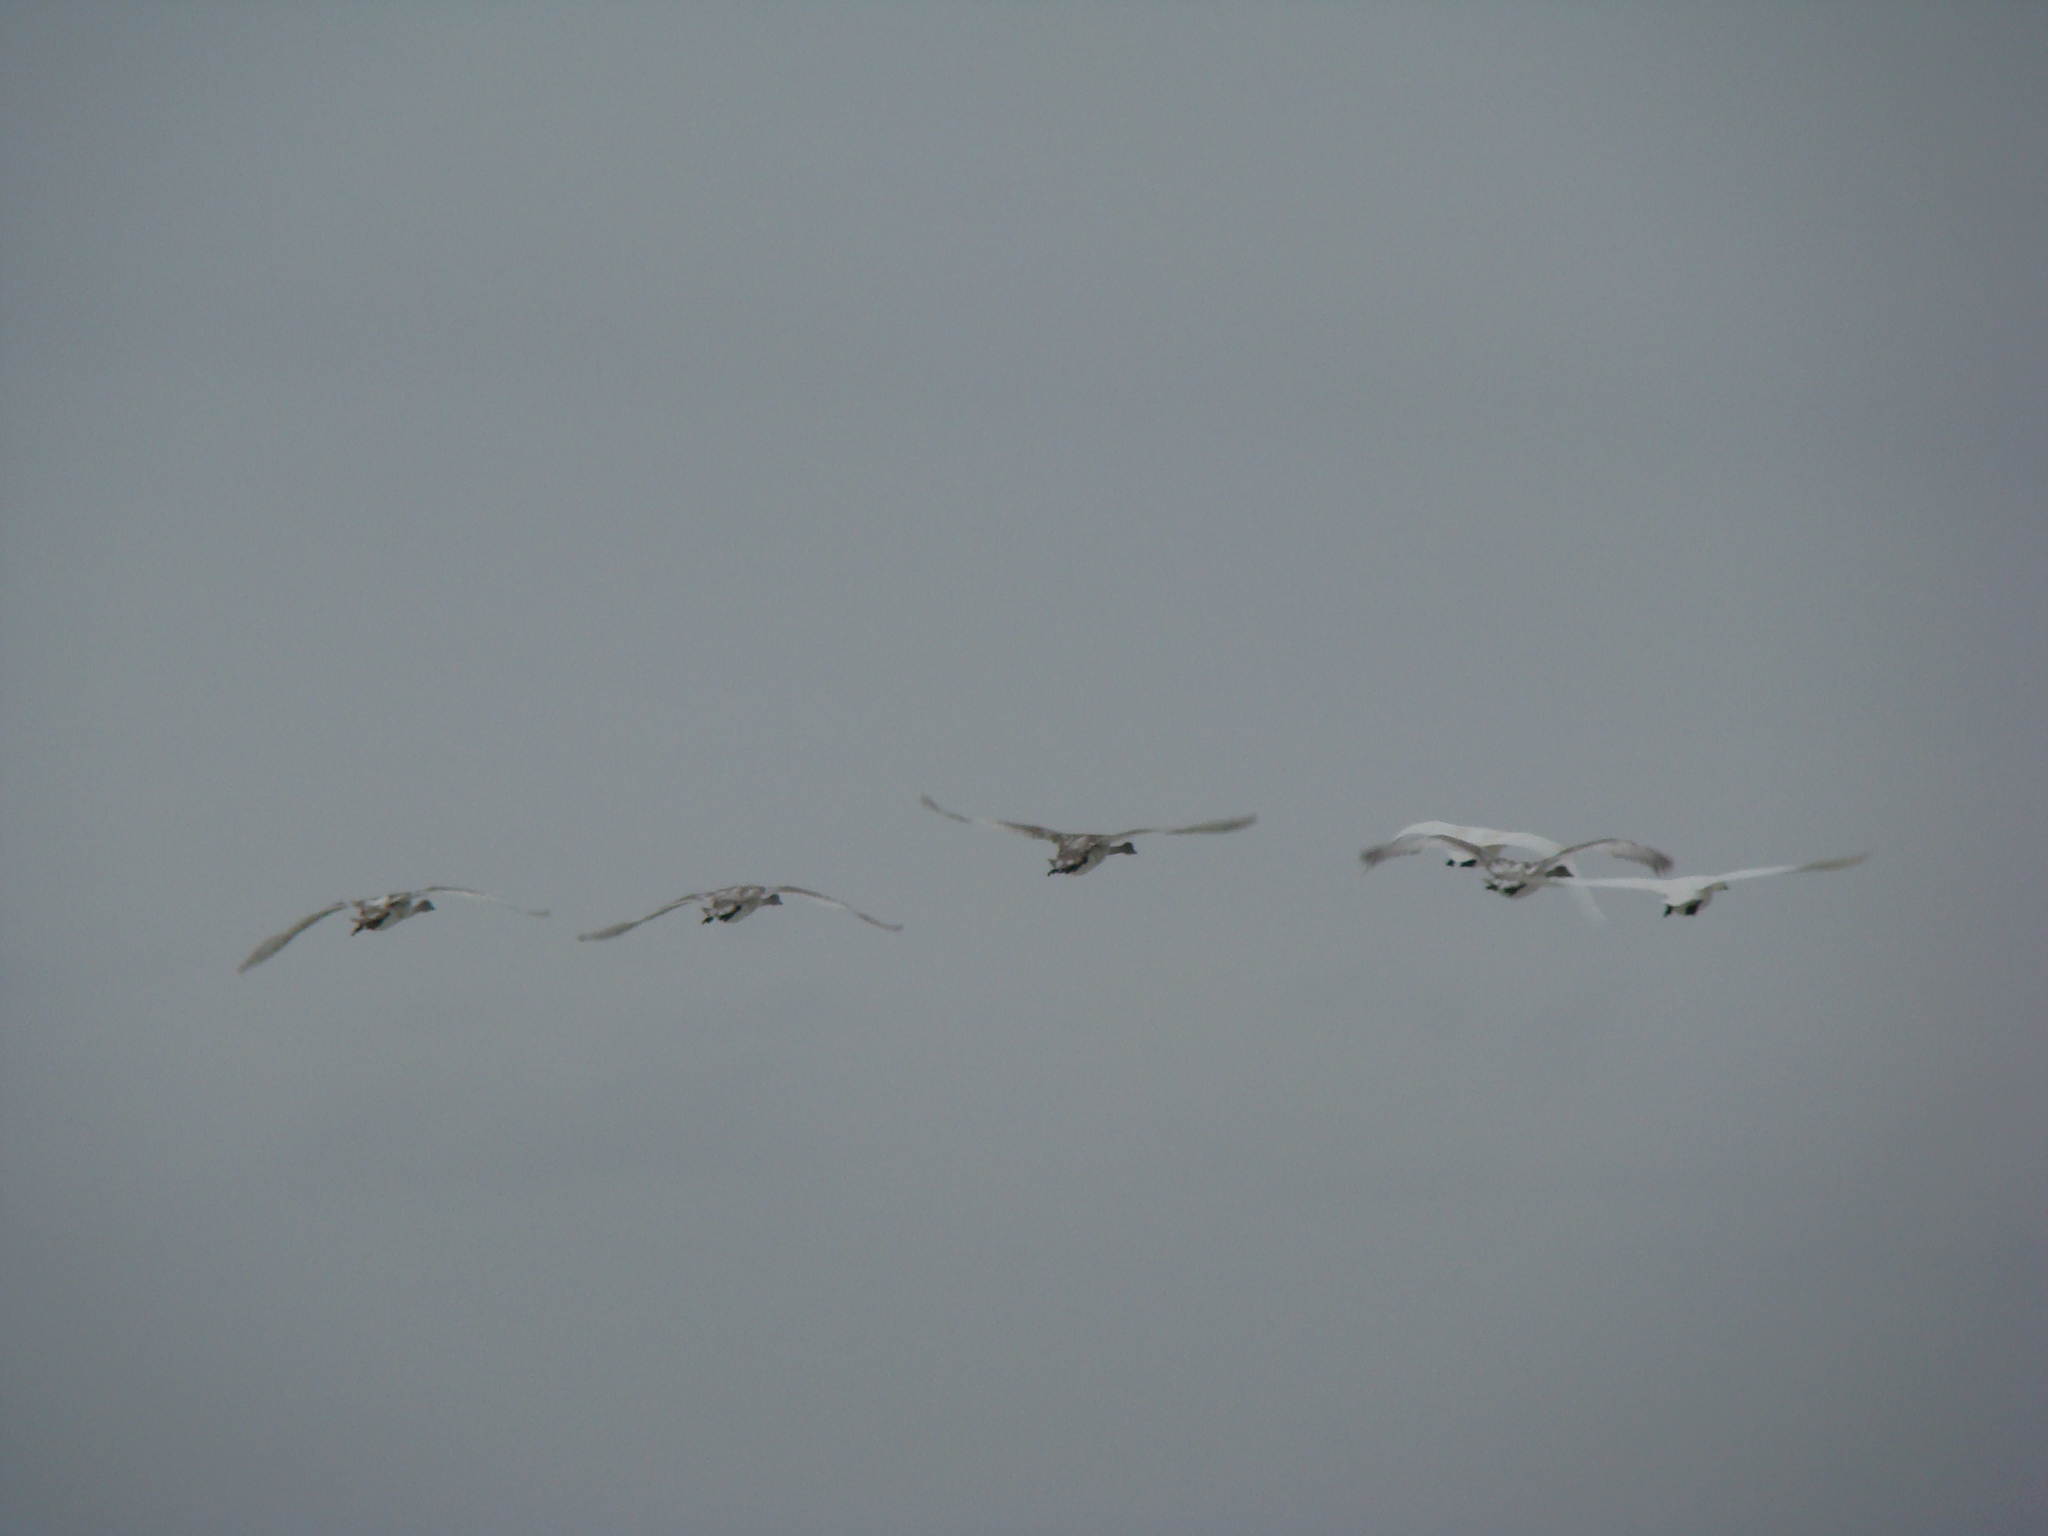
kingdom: Animalia
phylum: Chordata
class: Aves
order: Anseriformes
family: Anatidae
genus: Cygnus
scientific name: Cygnus buccinator
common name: Trumpeter swan
